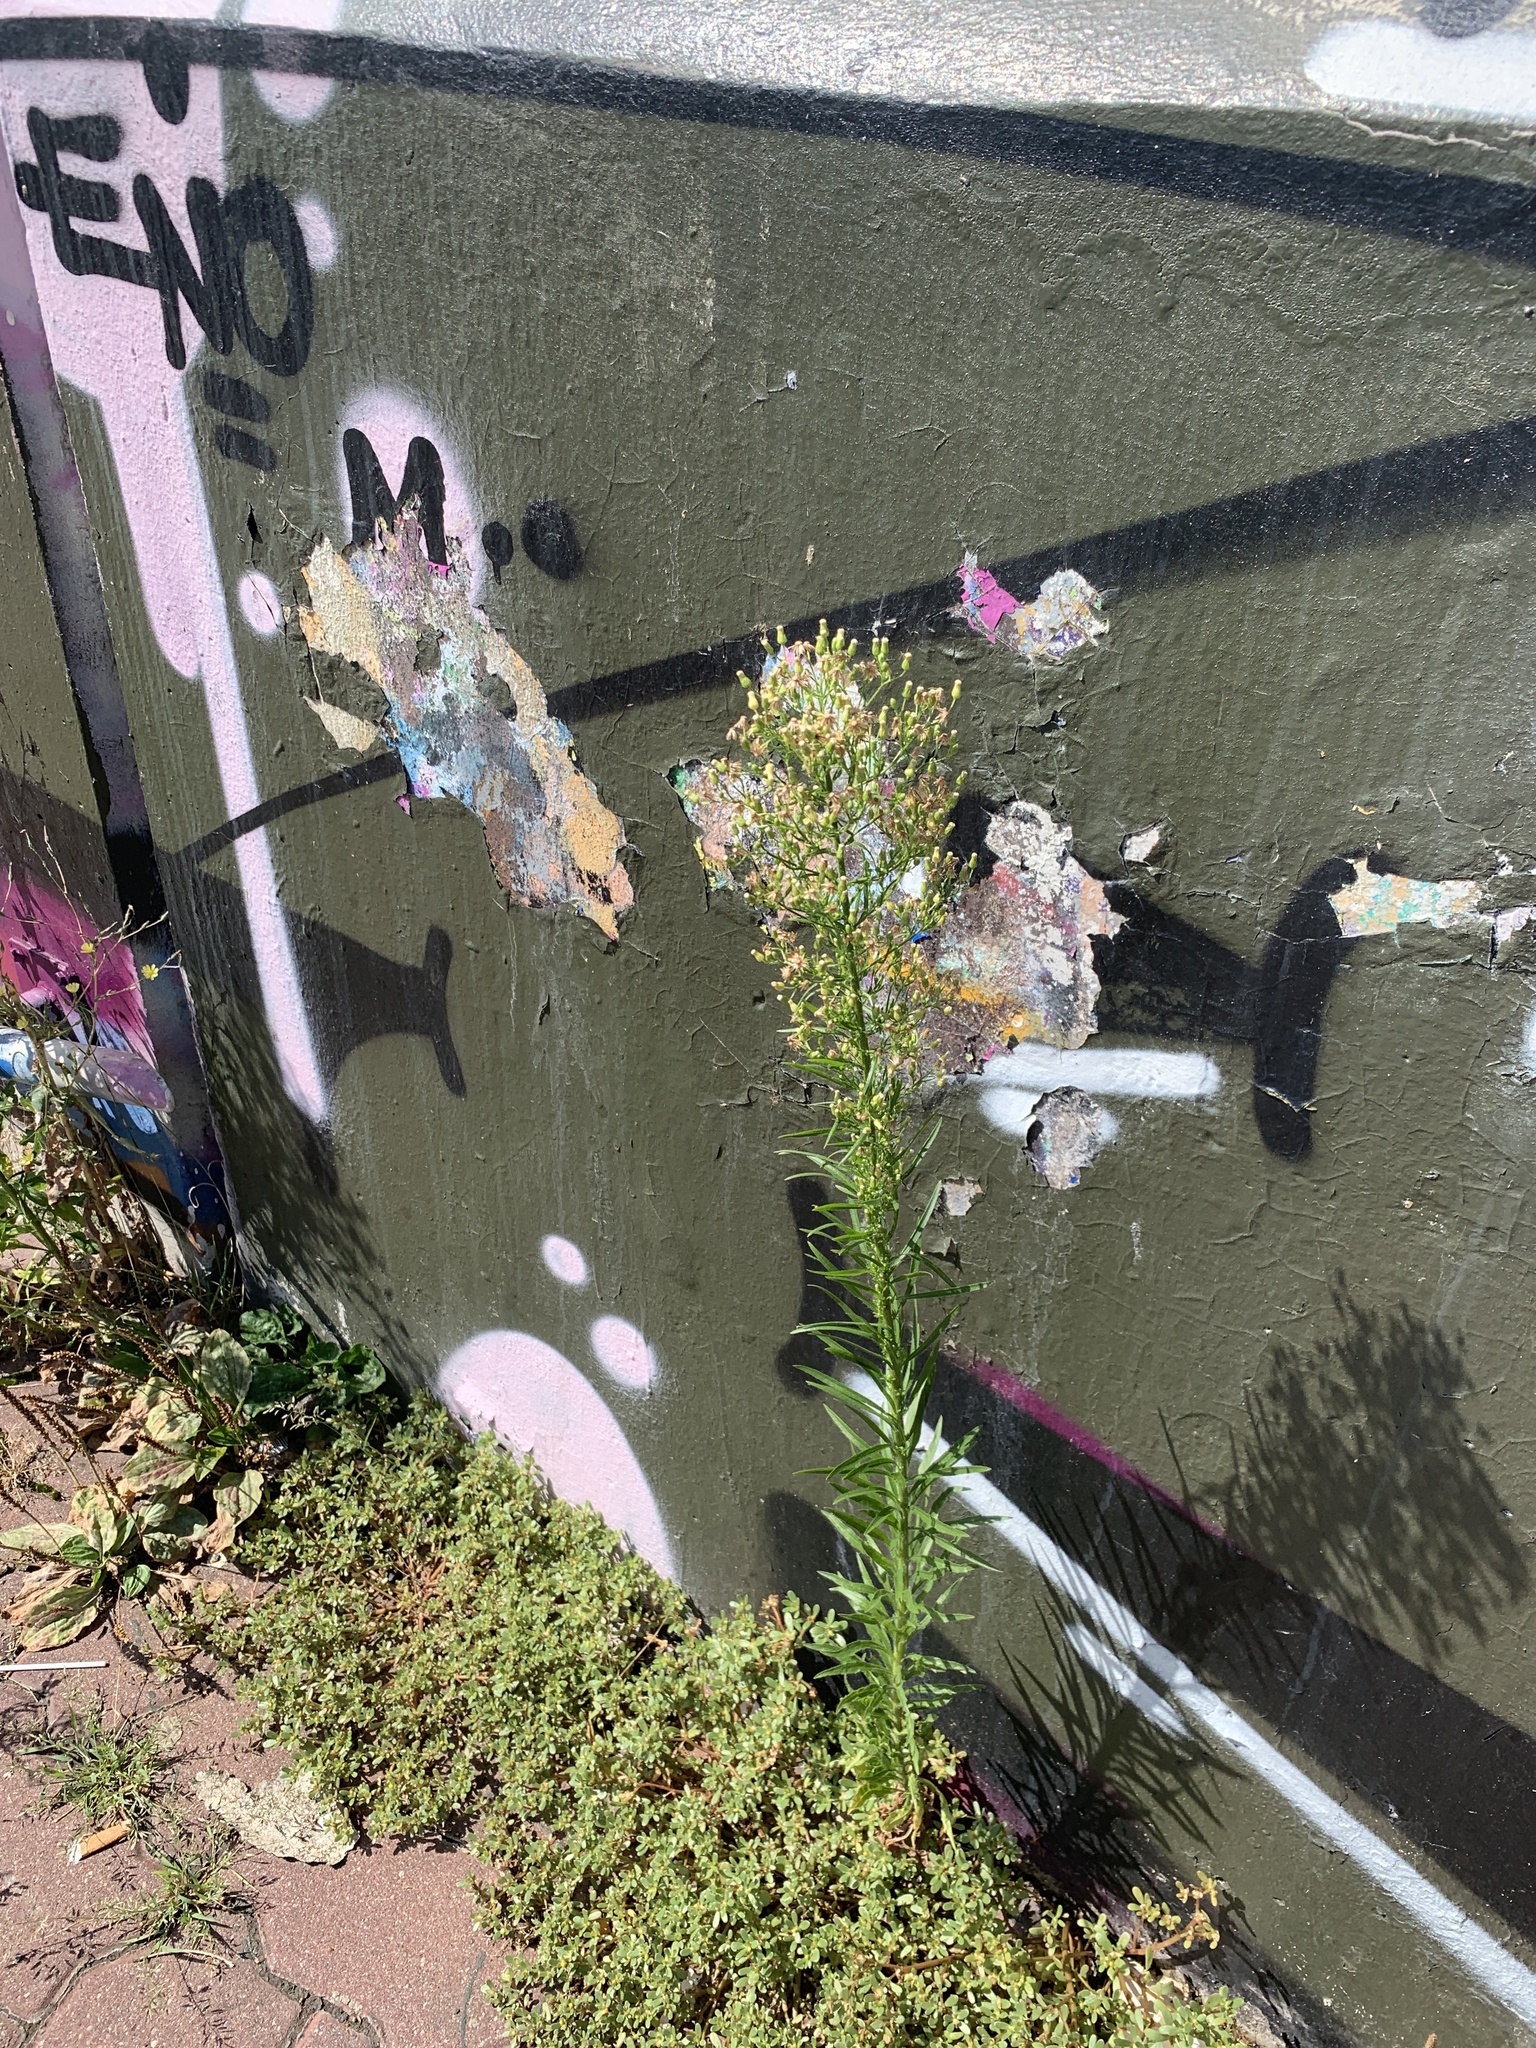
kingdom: Plantae
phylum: Tracheophyta
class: Magnoliopsida
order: Asterales
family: Asteraceae
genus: Erigeron
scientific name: Erigeron canadensis
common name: Canadian fleabane
